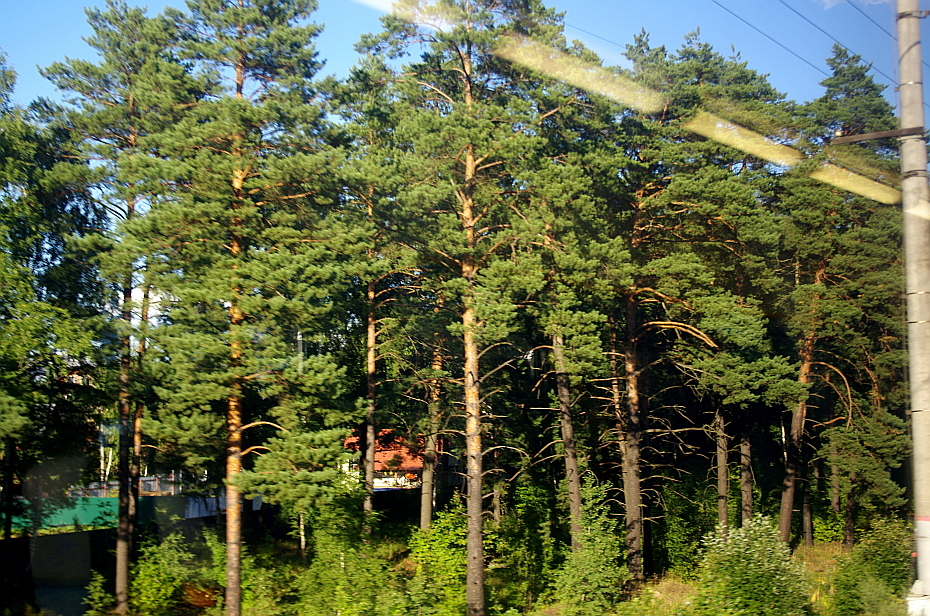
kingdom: Plantae
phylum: Tracheophyta
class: Pinopsida
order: Pinales
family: Pinaceae
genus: Pinus
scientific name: Pinus sylvestris
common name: Scots pine
